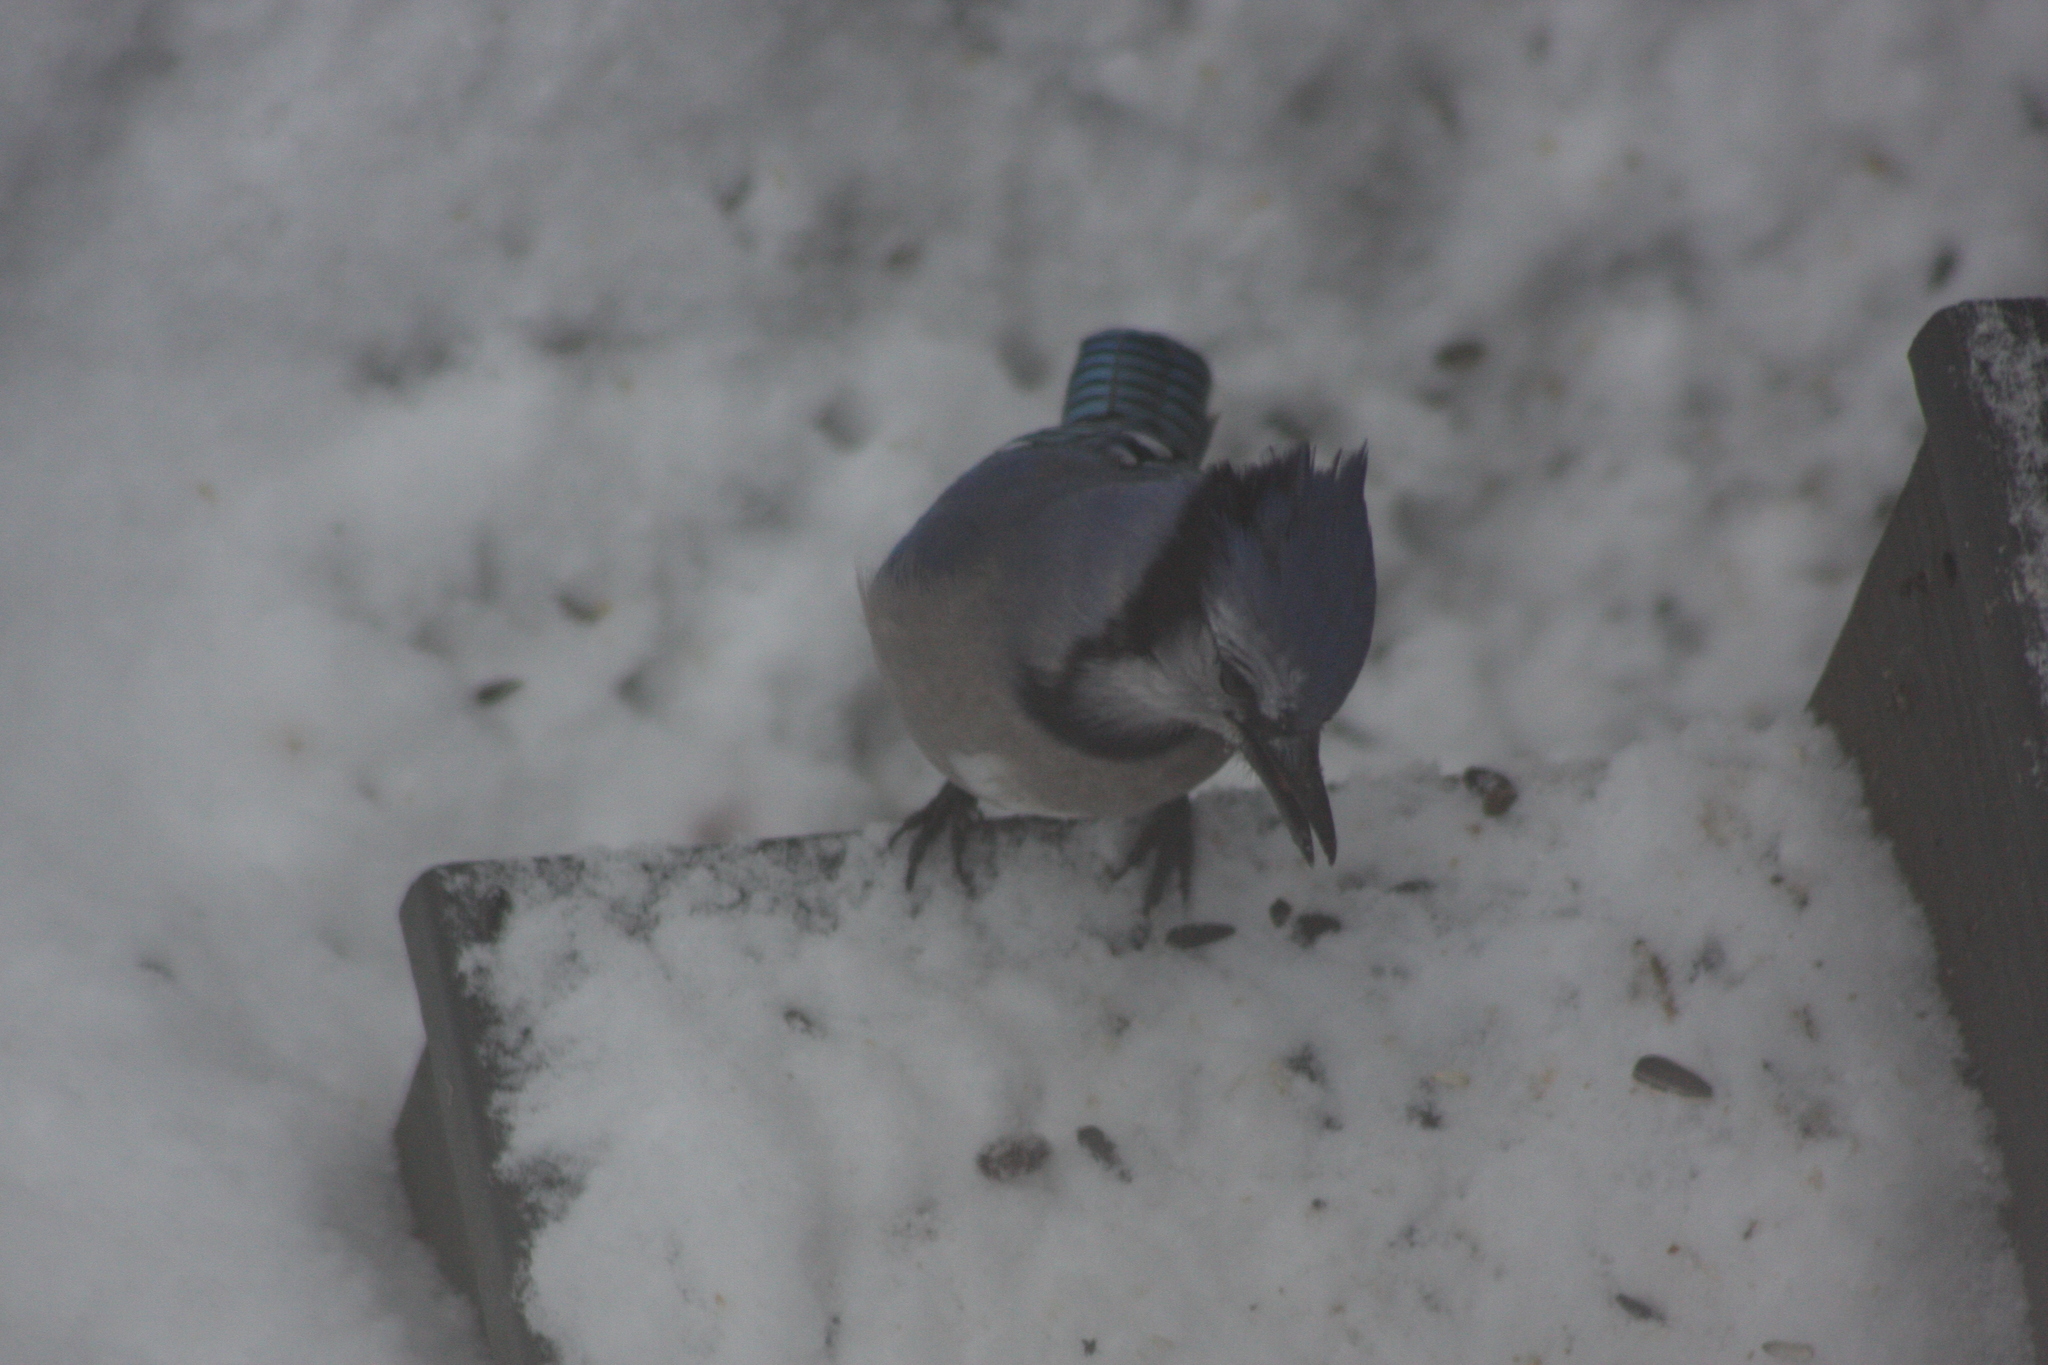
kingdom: Animalia
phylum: Chordata
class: Aves
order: Passeriformes
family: Corvidae
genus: Cyanocitta
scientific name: Cyanocitta cristata
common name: Blue jay
